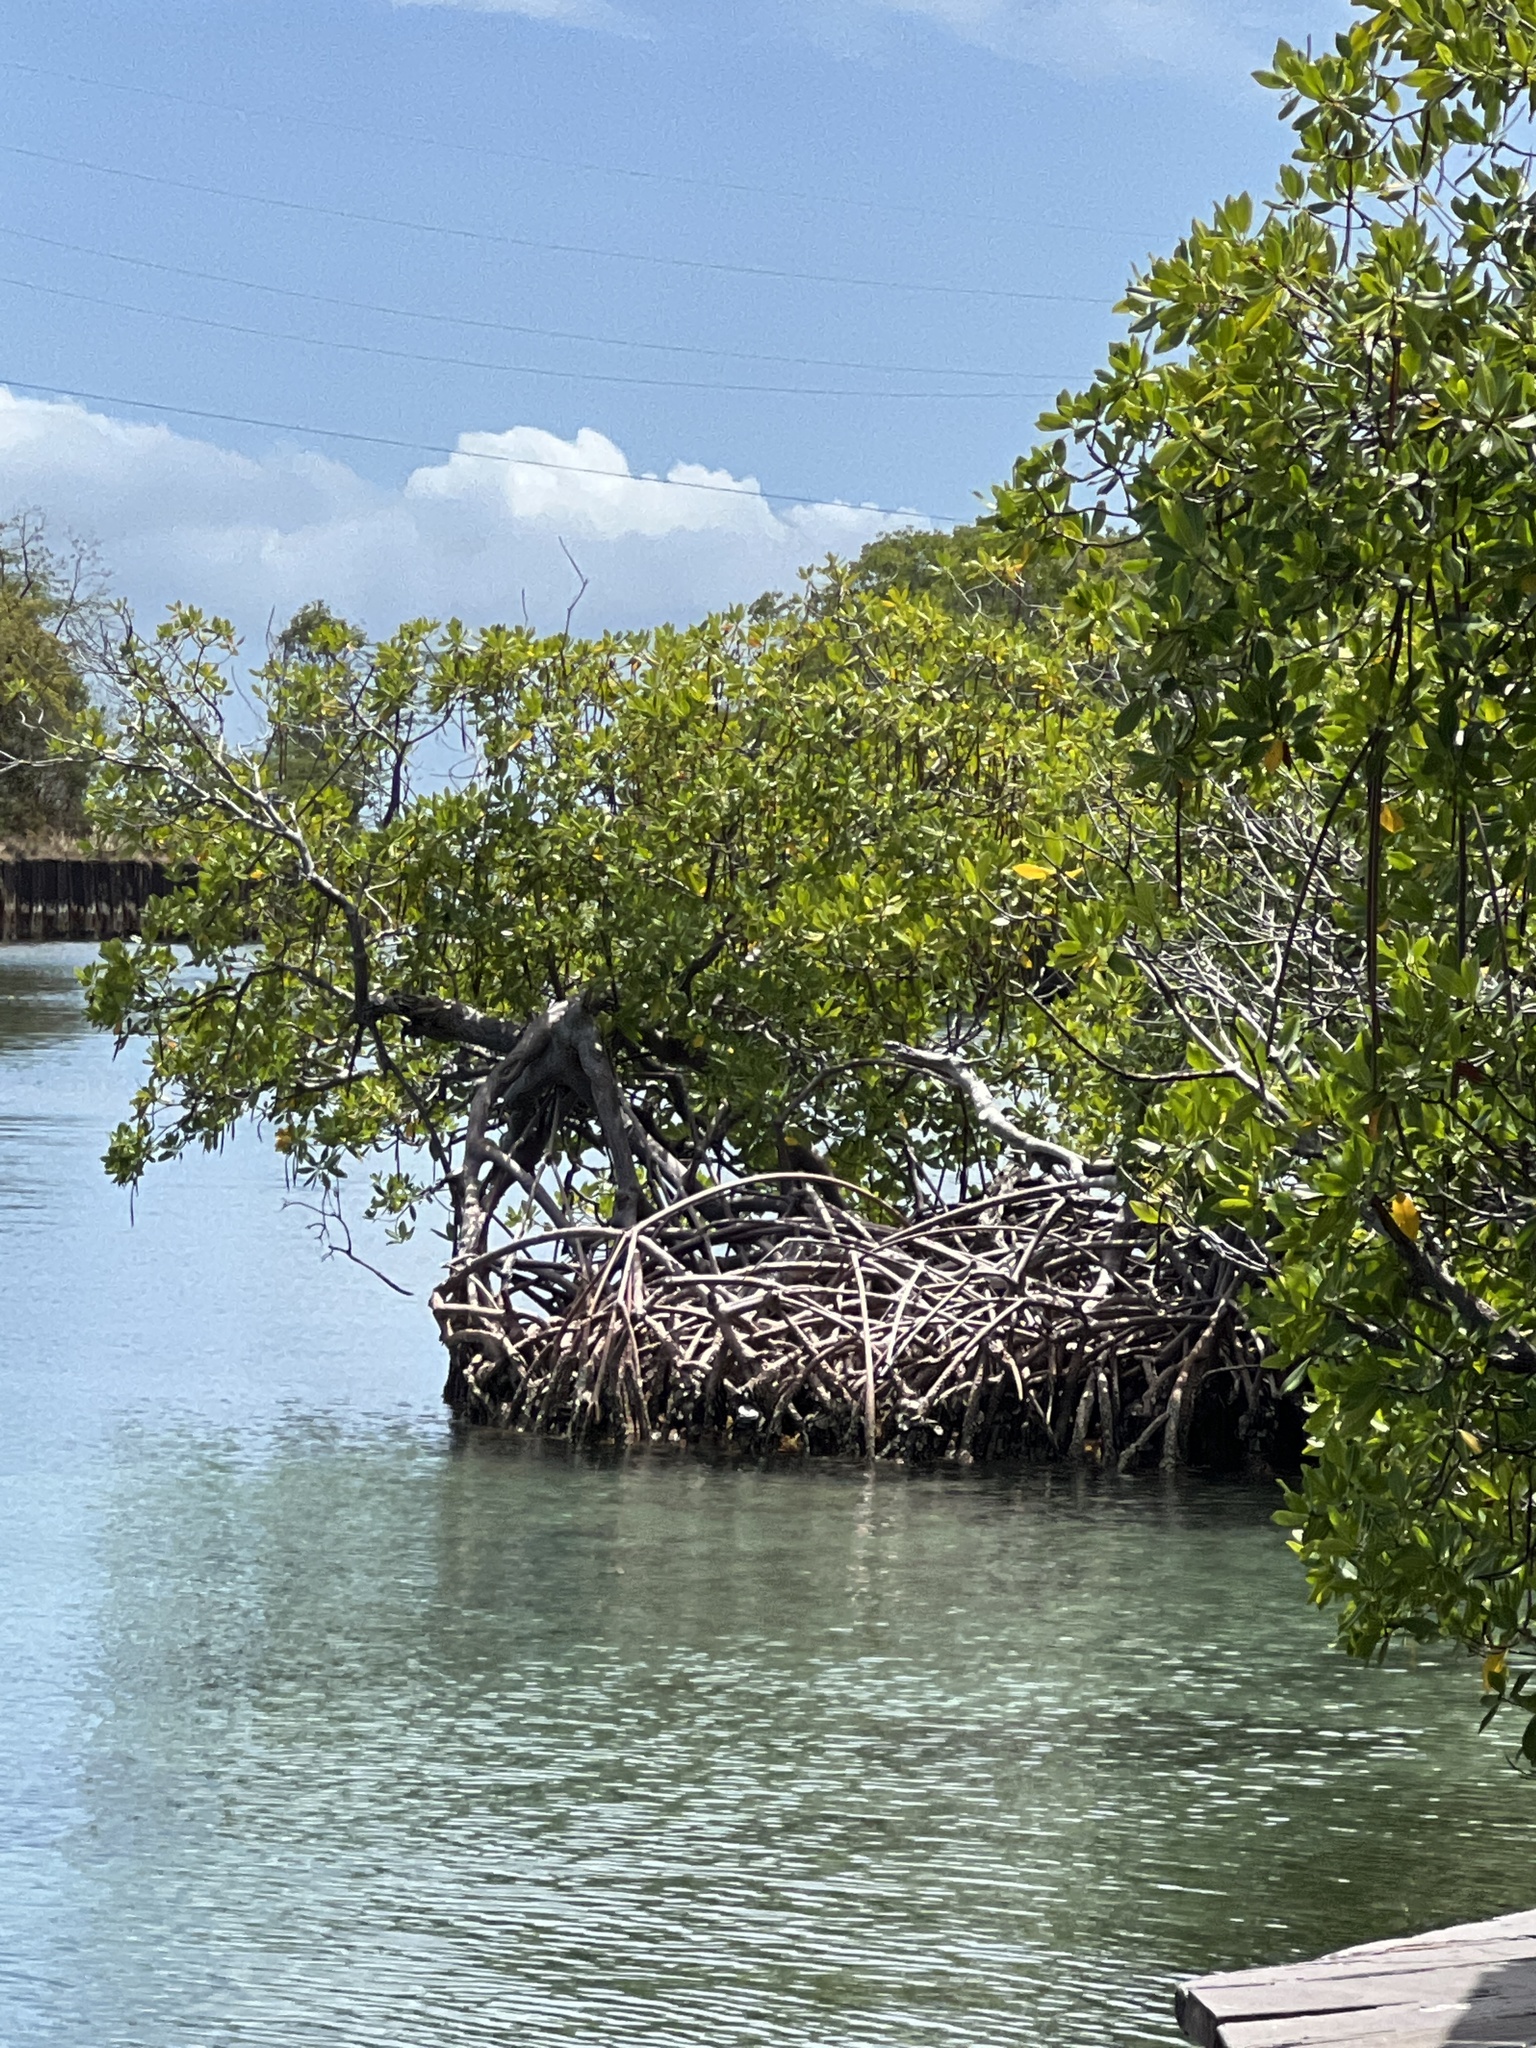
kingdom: Plantae
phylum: Tracheophyta
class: Magnoliopsida
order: Malpighiales
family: Rhizophoraceae
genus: Rhizophora
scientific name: Rhizophora mangle
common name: Red mangrove
